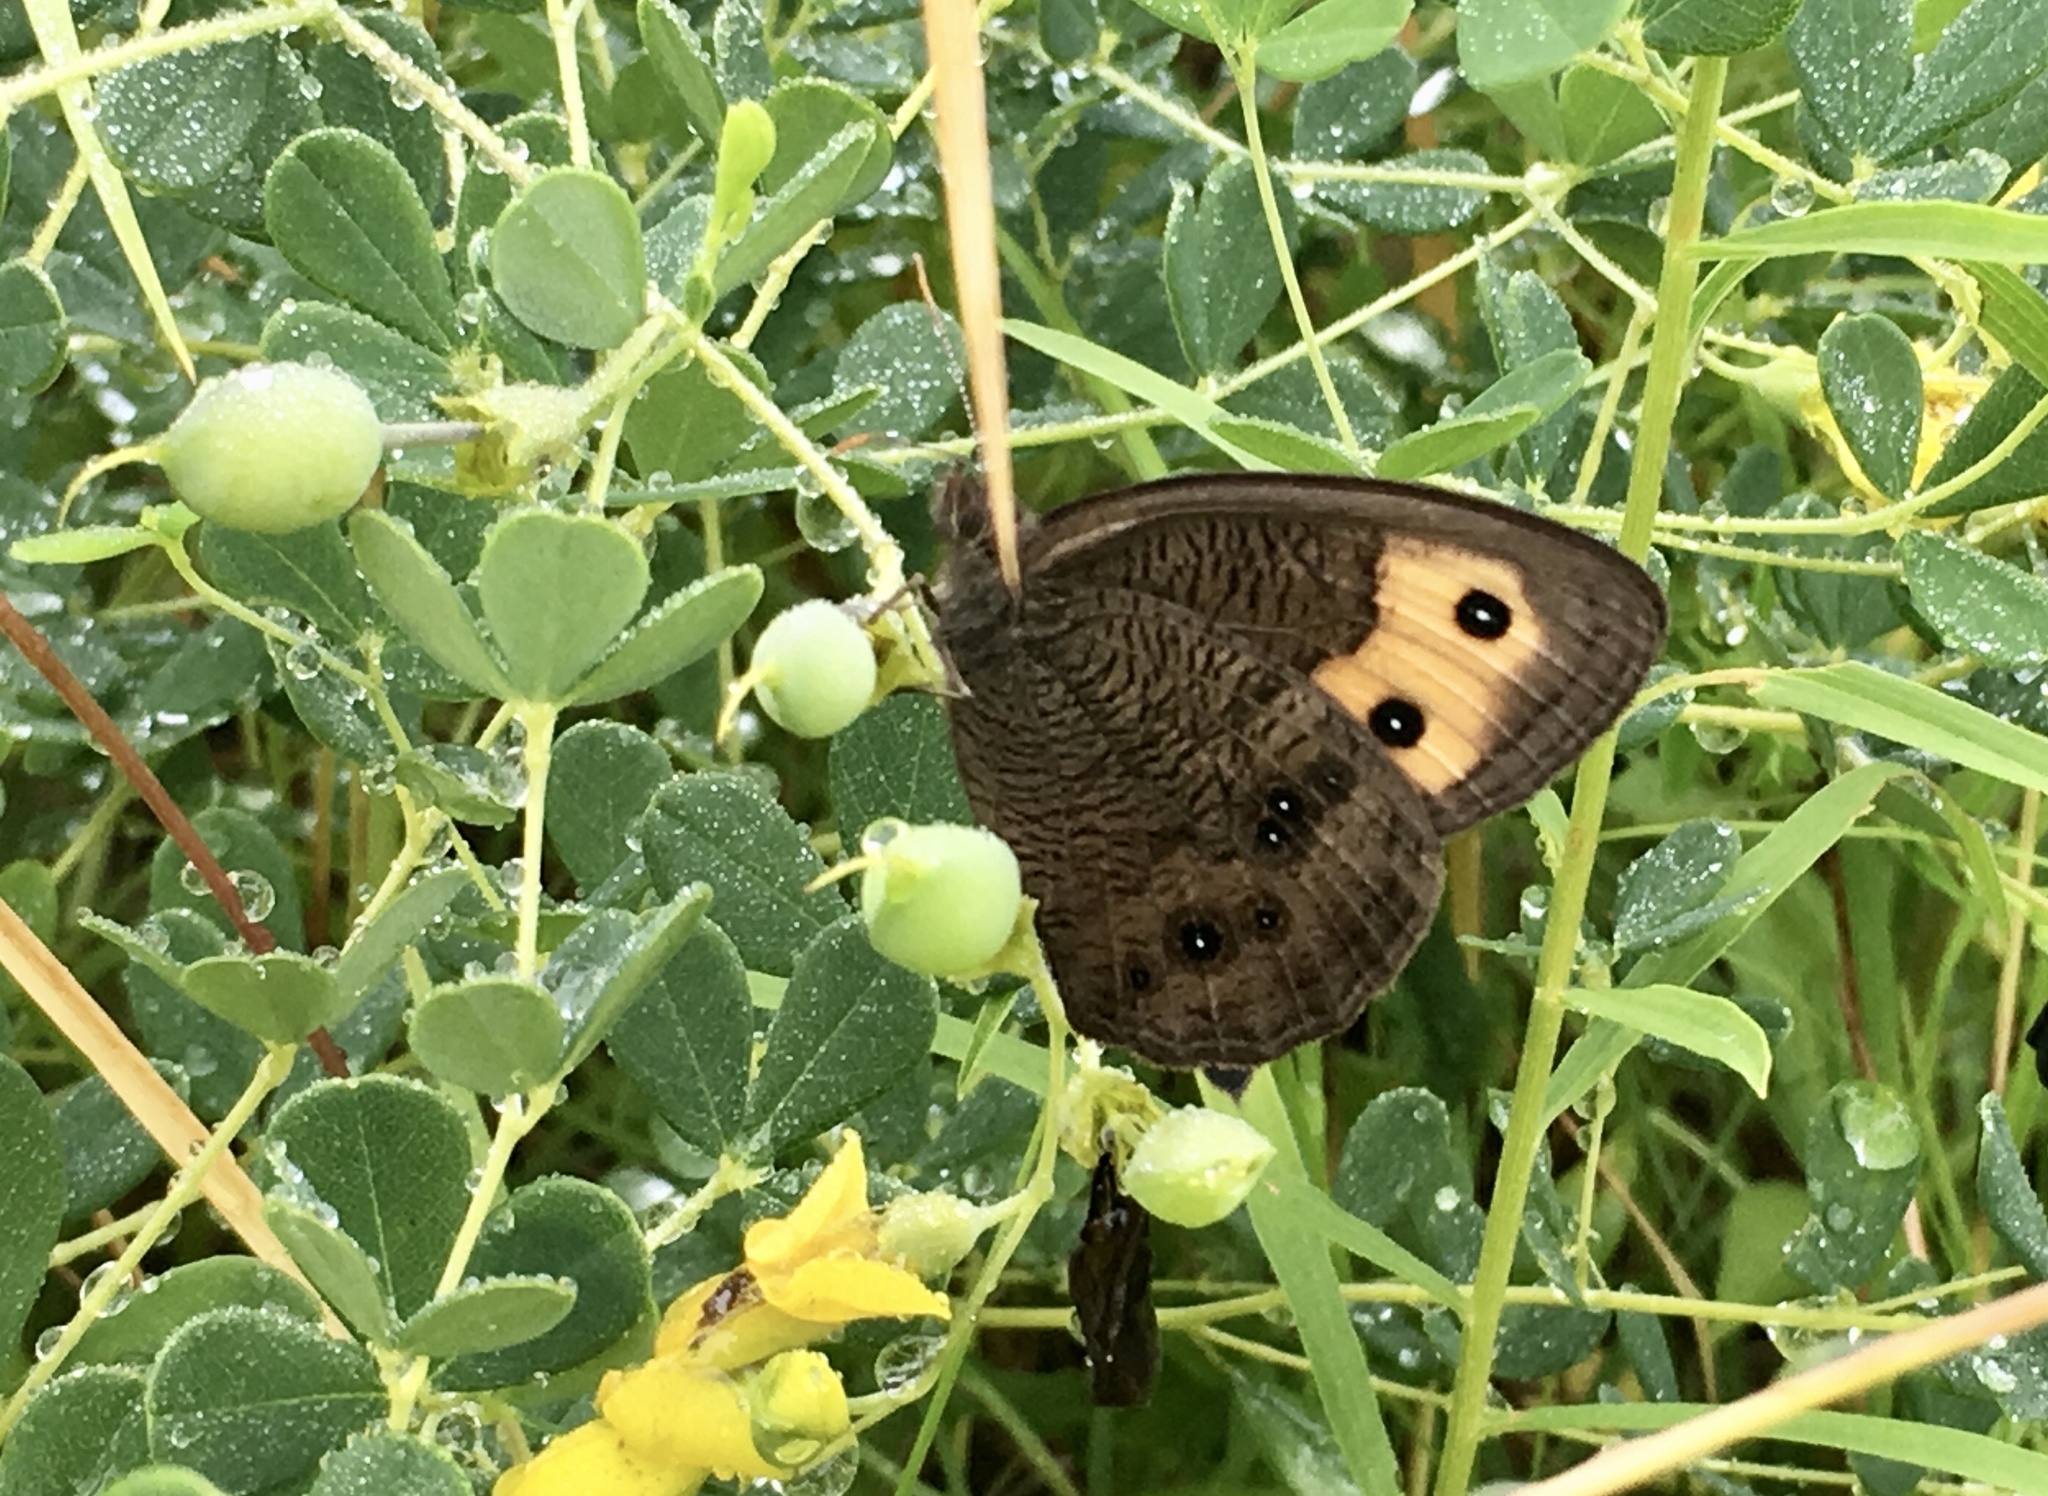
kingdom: Animalia
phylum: Arthropoda
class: Insecta
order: Lepidoptera
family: Nymphalidae
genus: Cercyonis
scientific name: Cercyonis pegala
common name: Common wood-nymph
